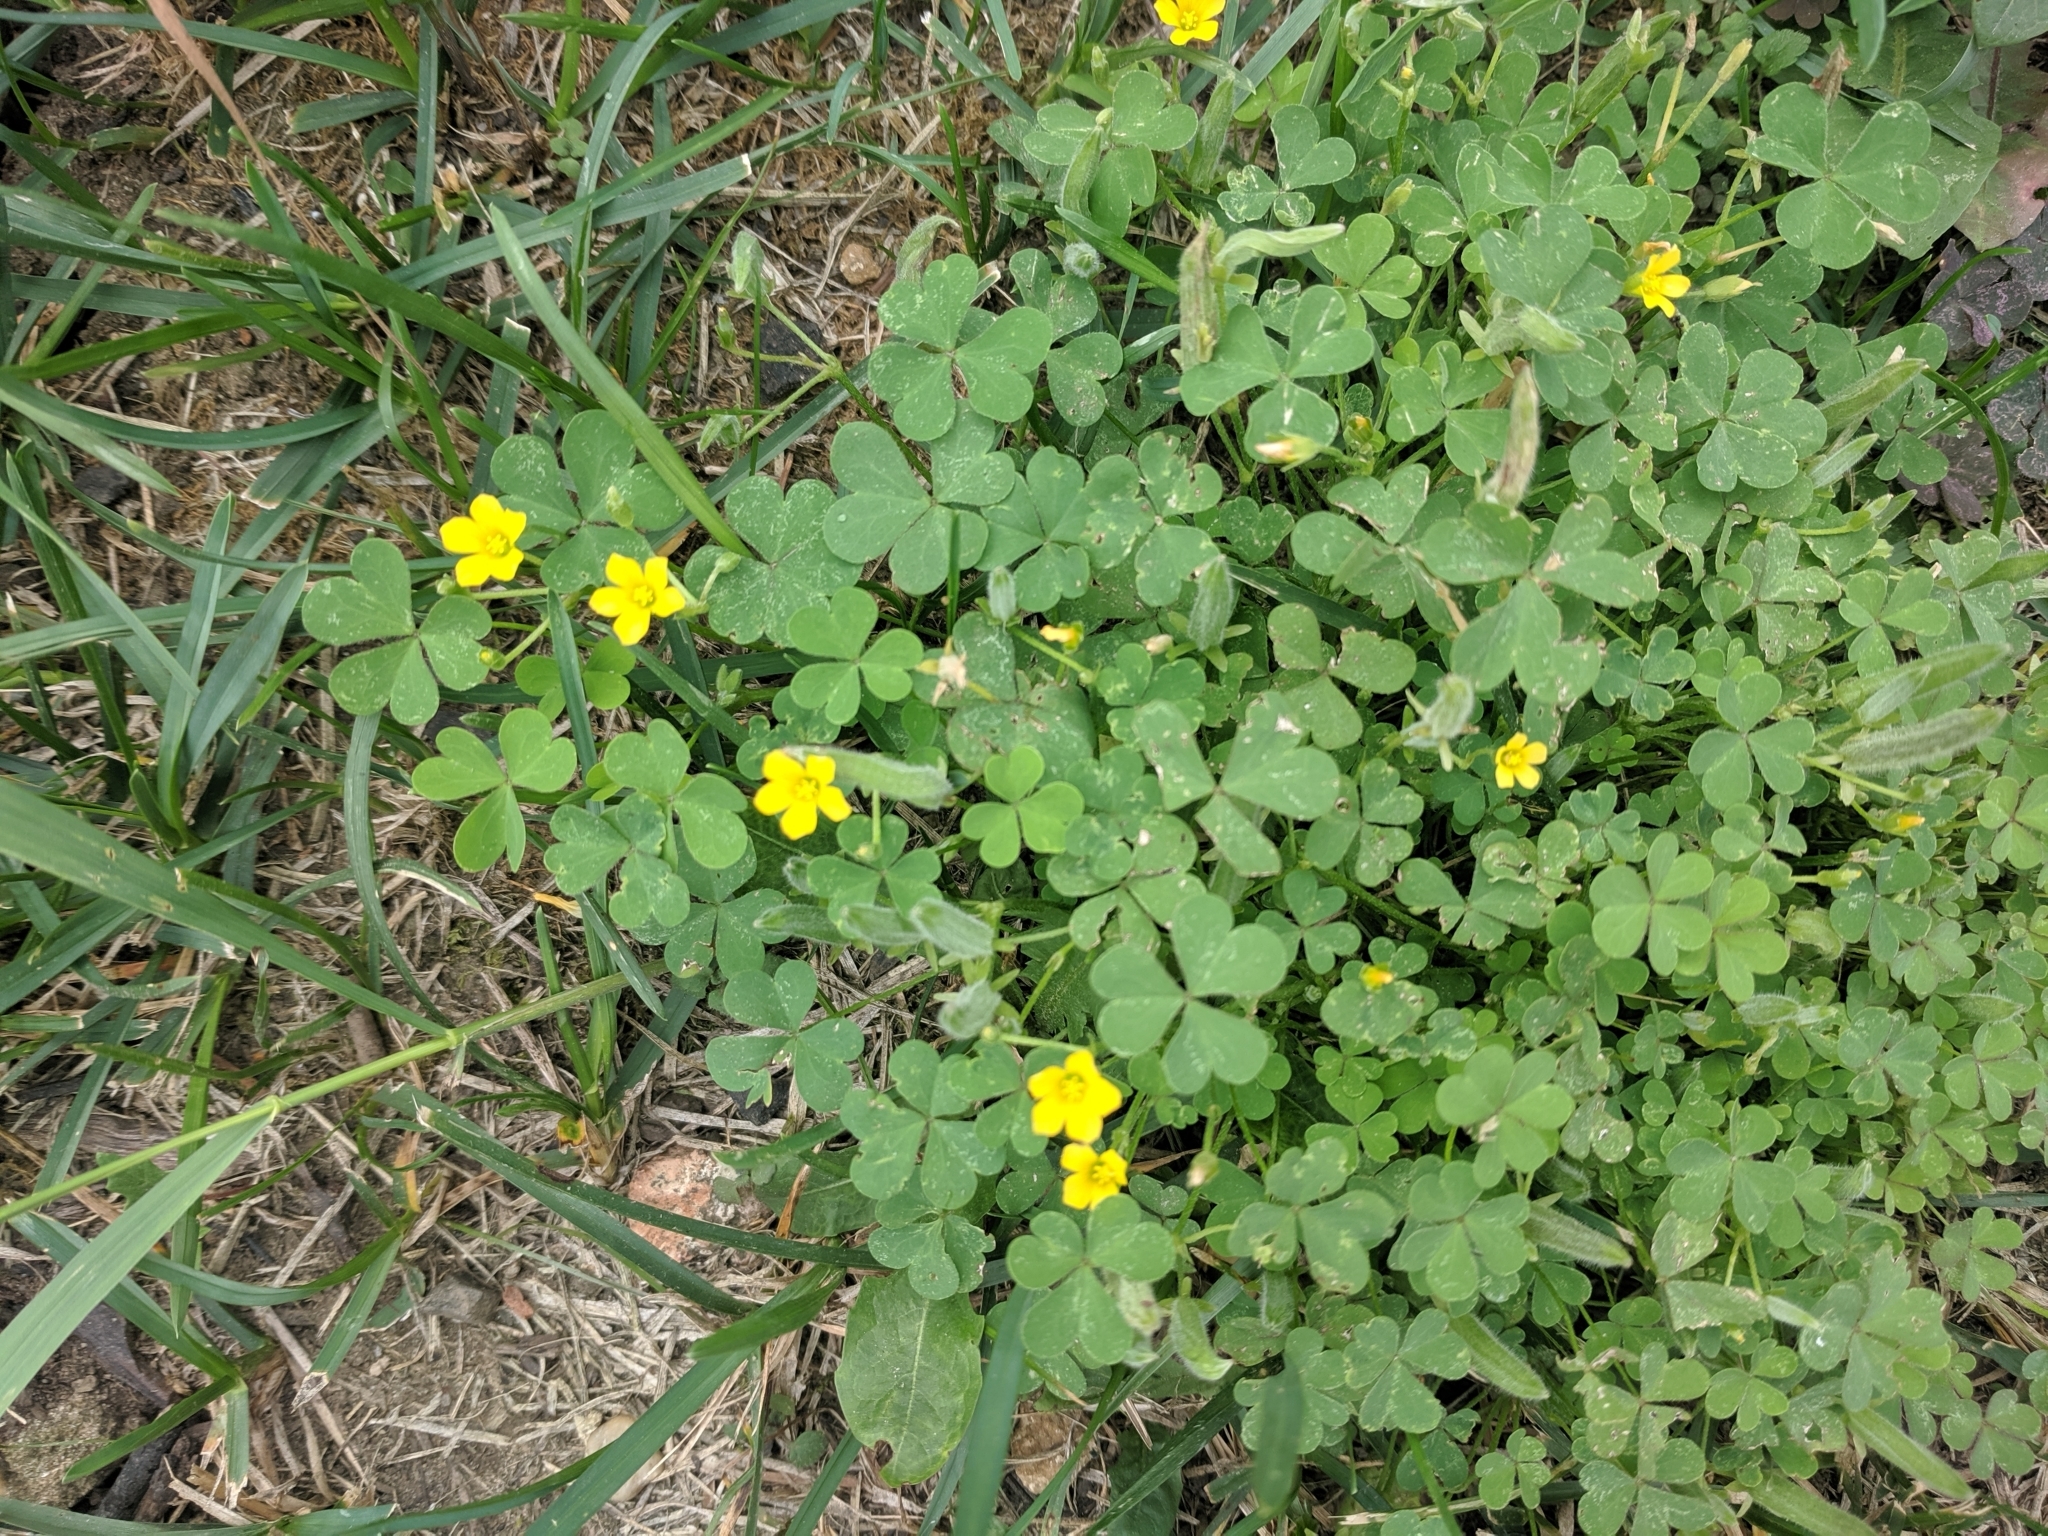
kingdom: Plantae
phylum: Tracheophyta
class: Magnoliopsida
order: Oxalidales
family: Oxalidaceae
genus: Oxalis
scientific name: Oxalis corniculata
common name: Procumbent yellow-sorrel
